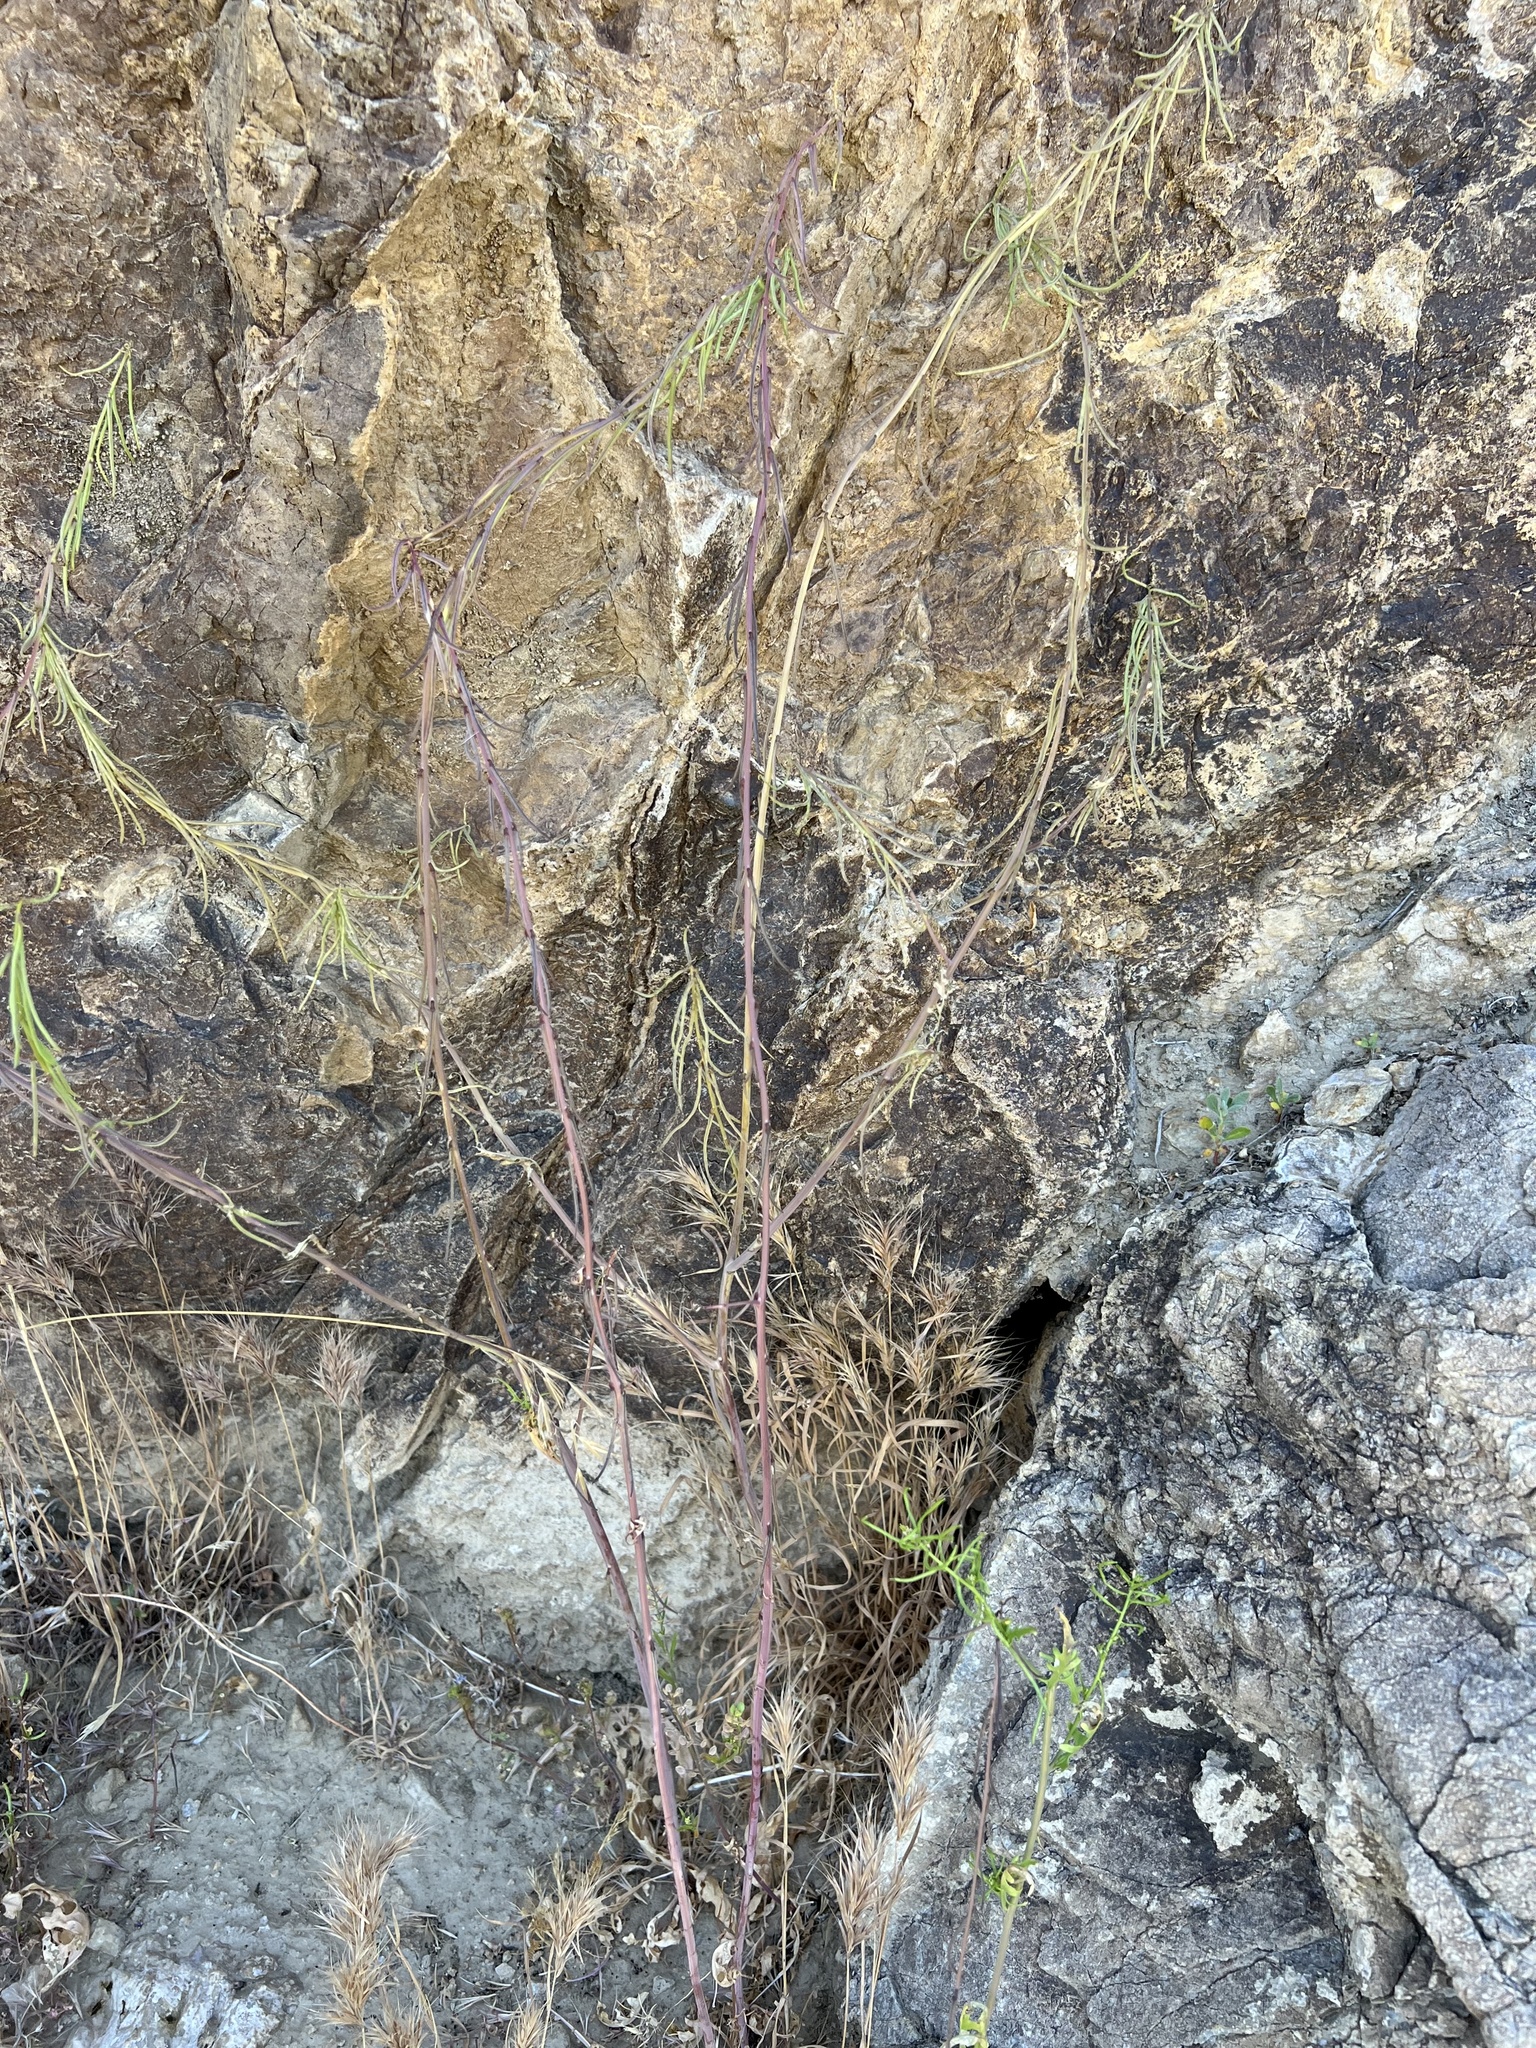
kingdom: Plantae
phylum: Tracheophyta
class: Magnoliopsida
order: Brassicales
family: Brassicaceae
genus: Streptanthus
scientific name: Streptanthus longirostris
